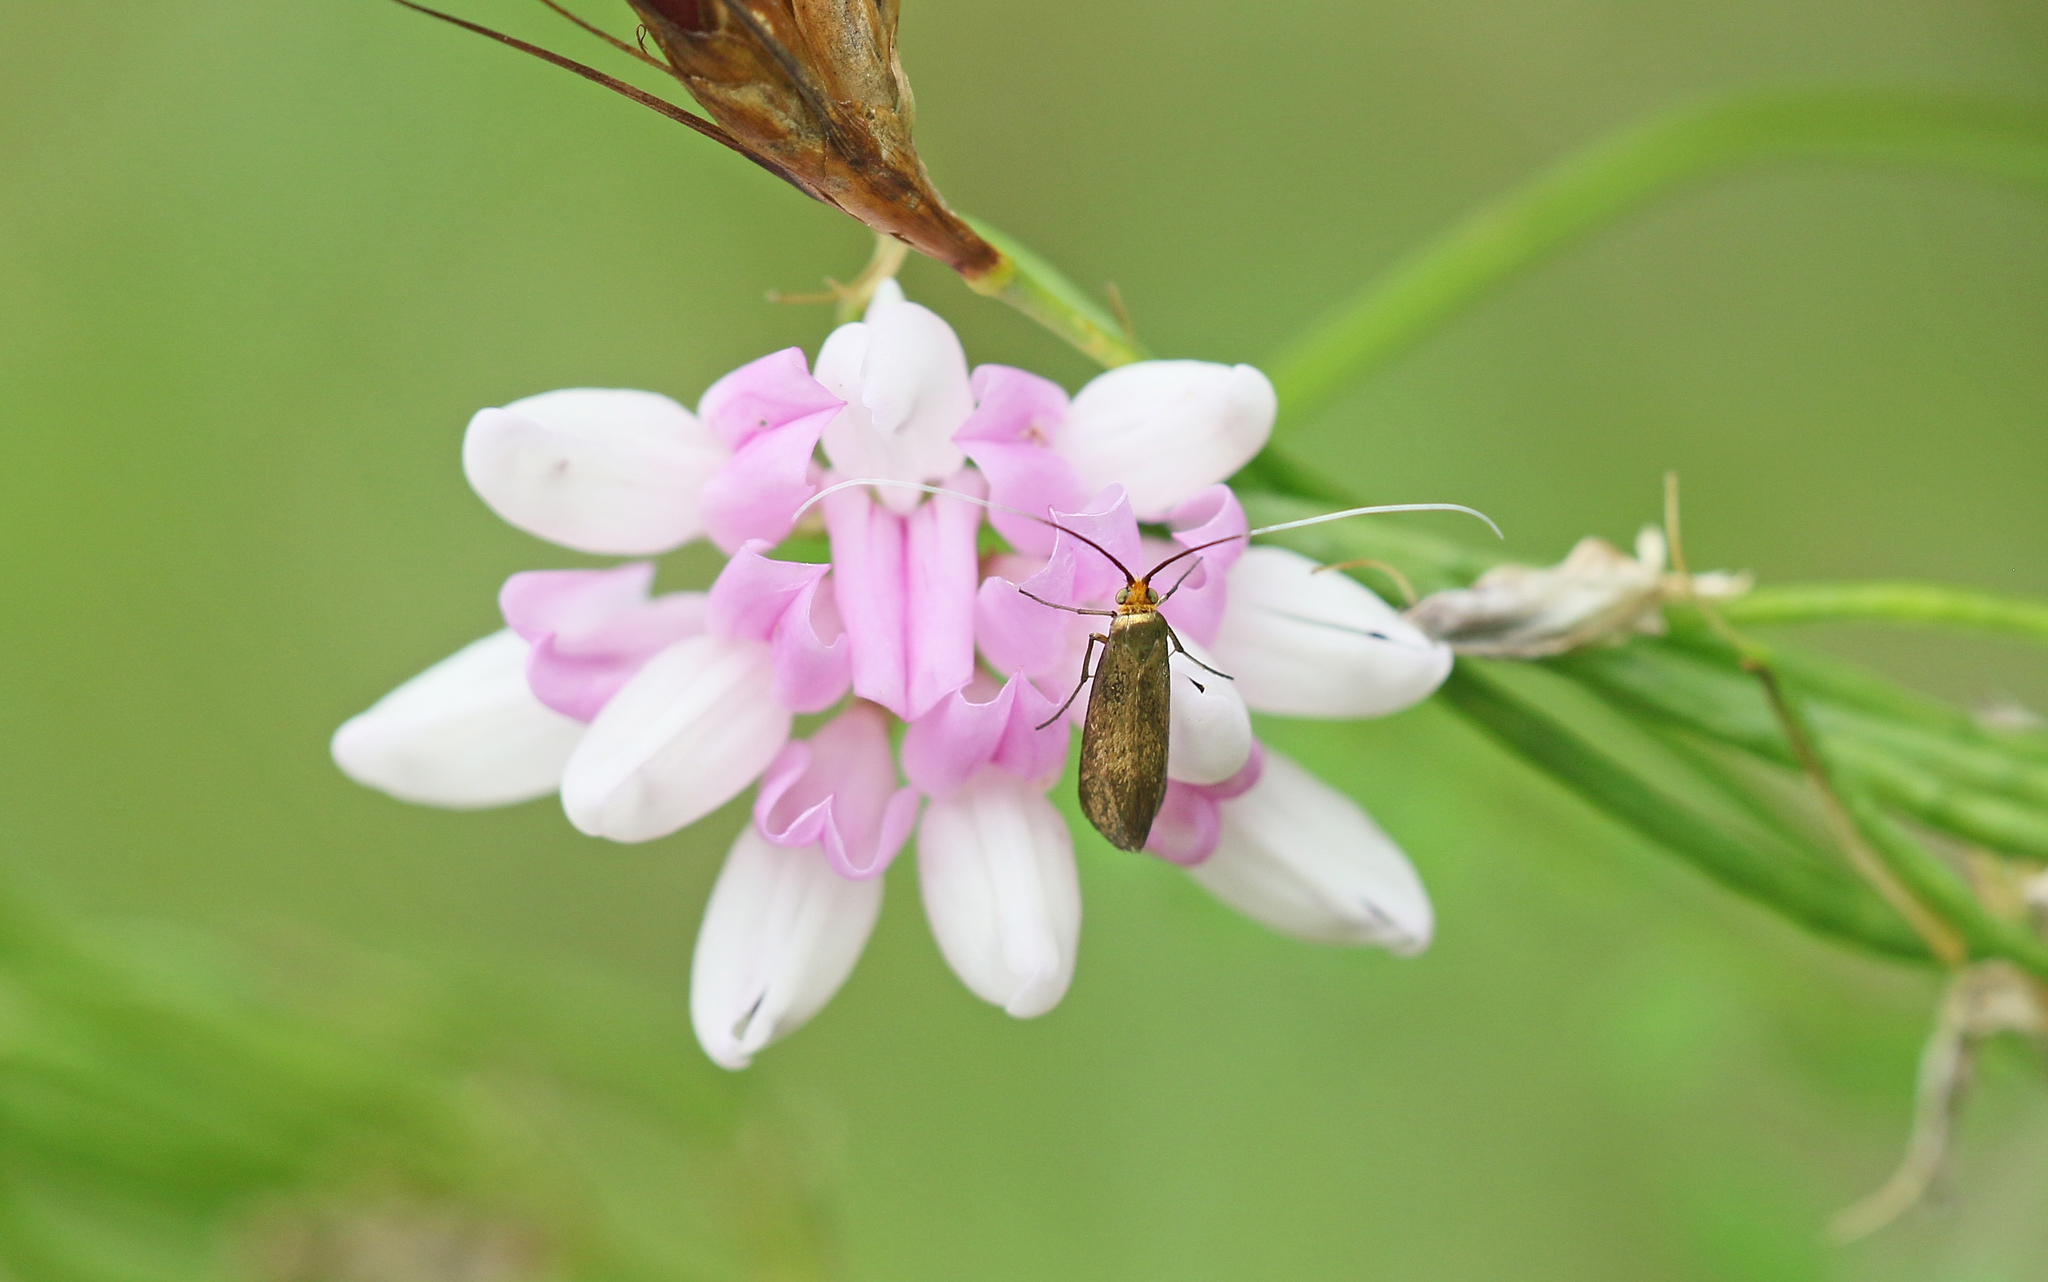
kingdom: Animalia
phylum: Arthropoda
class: Insecta
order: Lepidoptera
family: Adelidae
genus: Nemophora
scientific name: Nemophora metallica
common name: Brassy long-horn
